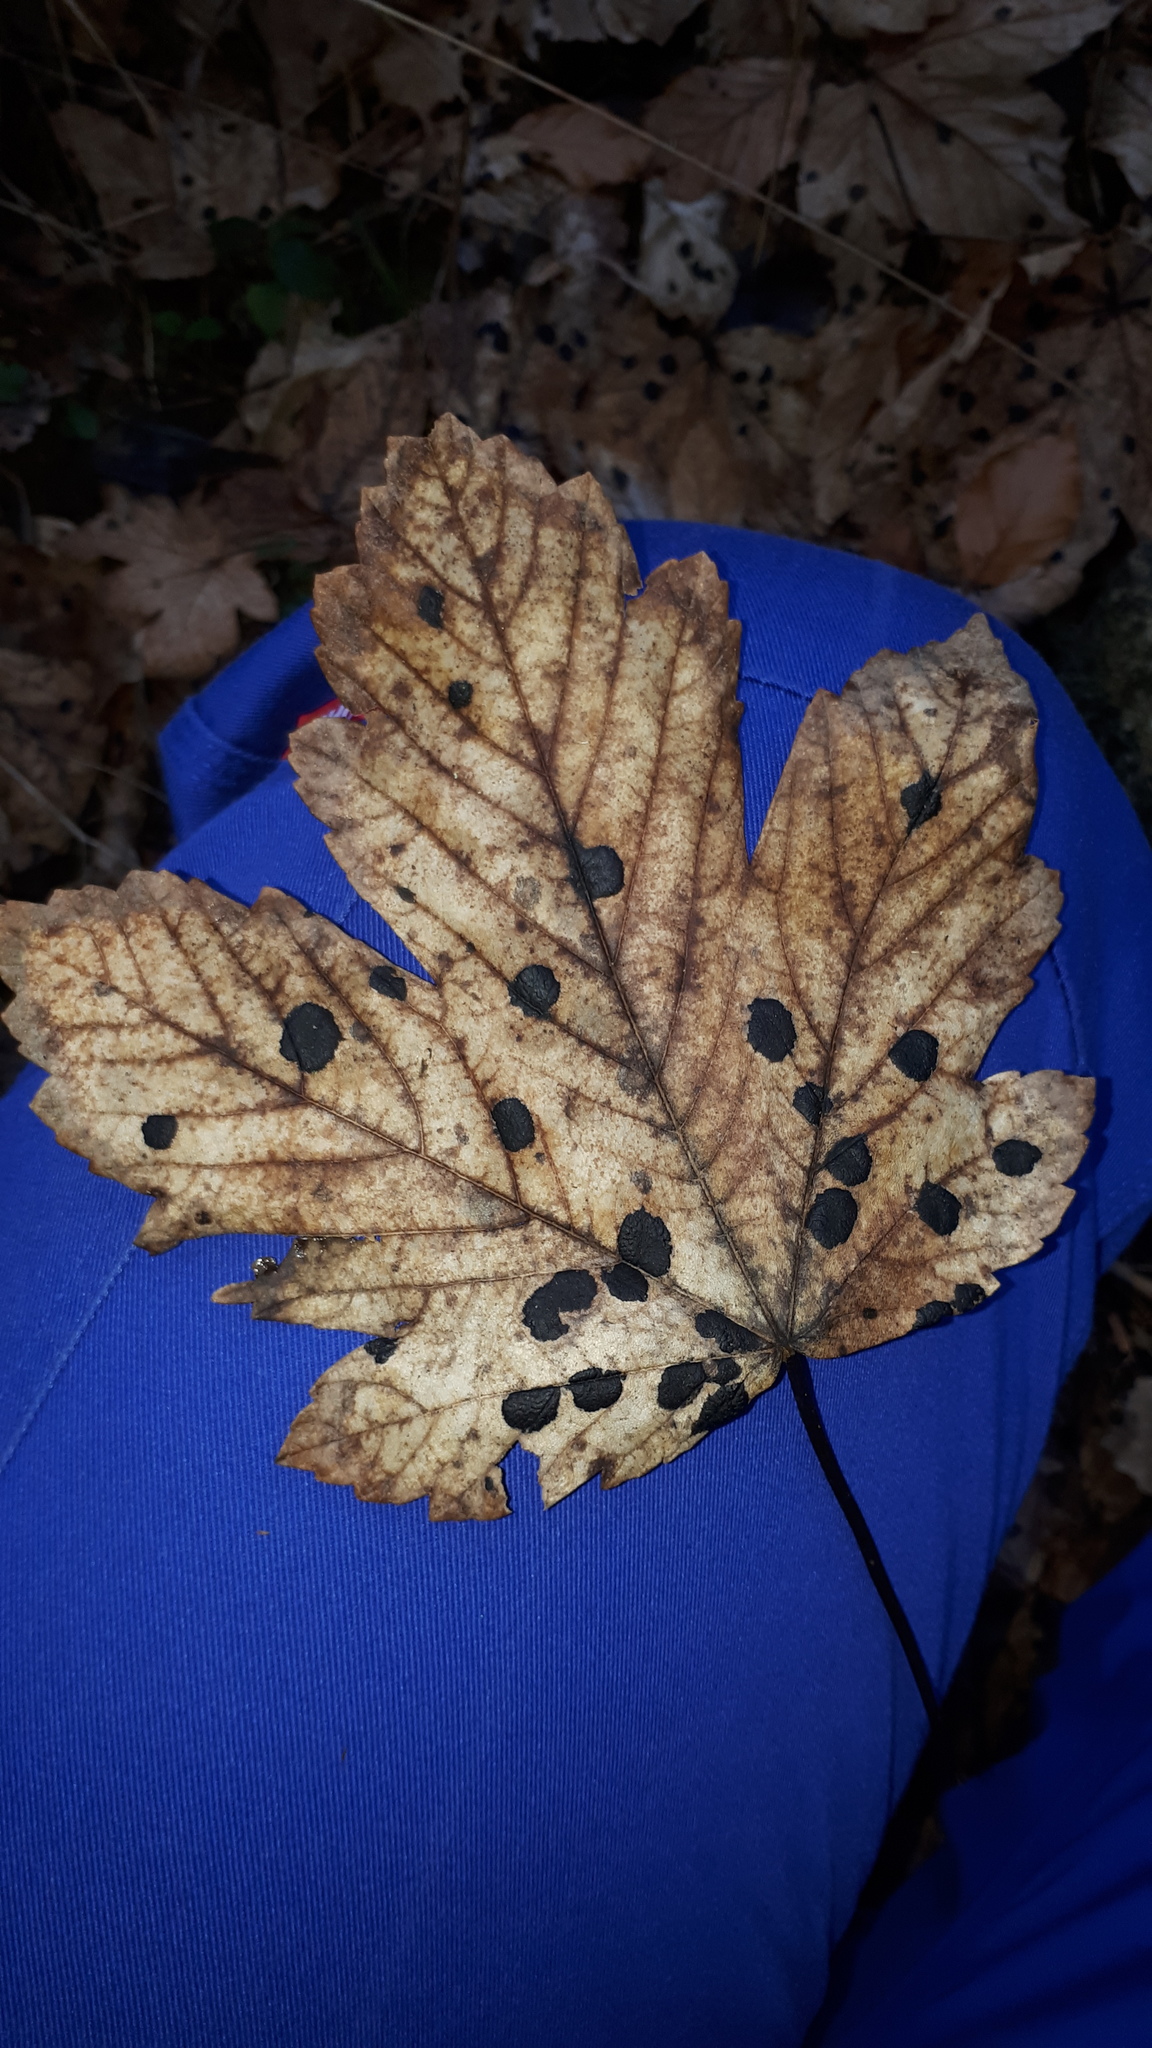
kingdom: Plantae
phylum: Tracheophyta
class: Magnoliopsida
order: Sapindales
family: Sapindaceae
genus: Acer
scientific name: Acer pseudoplatanus
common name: Sycamore
